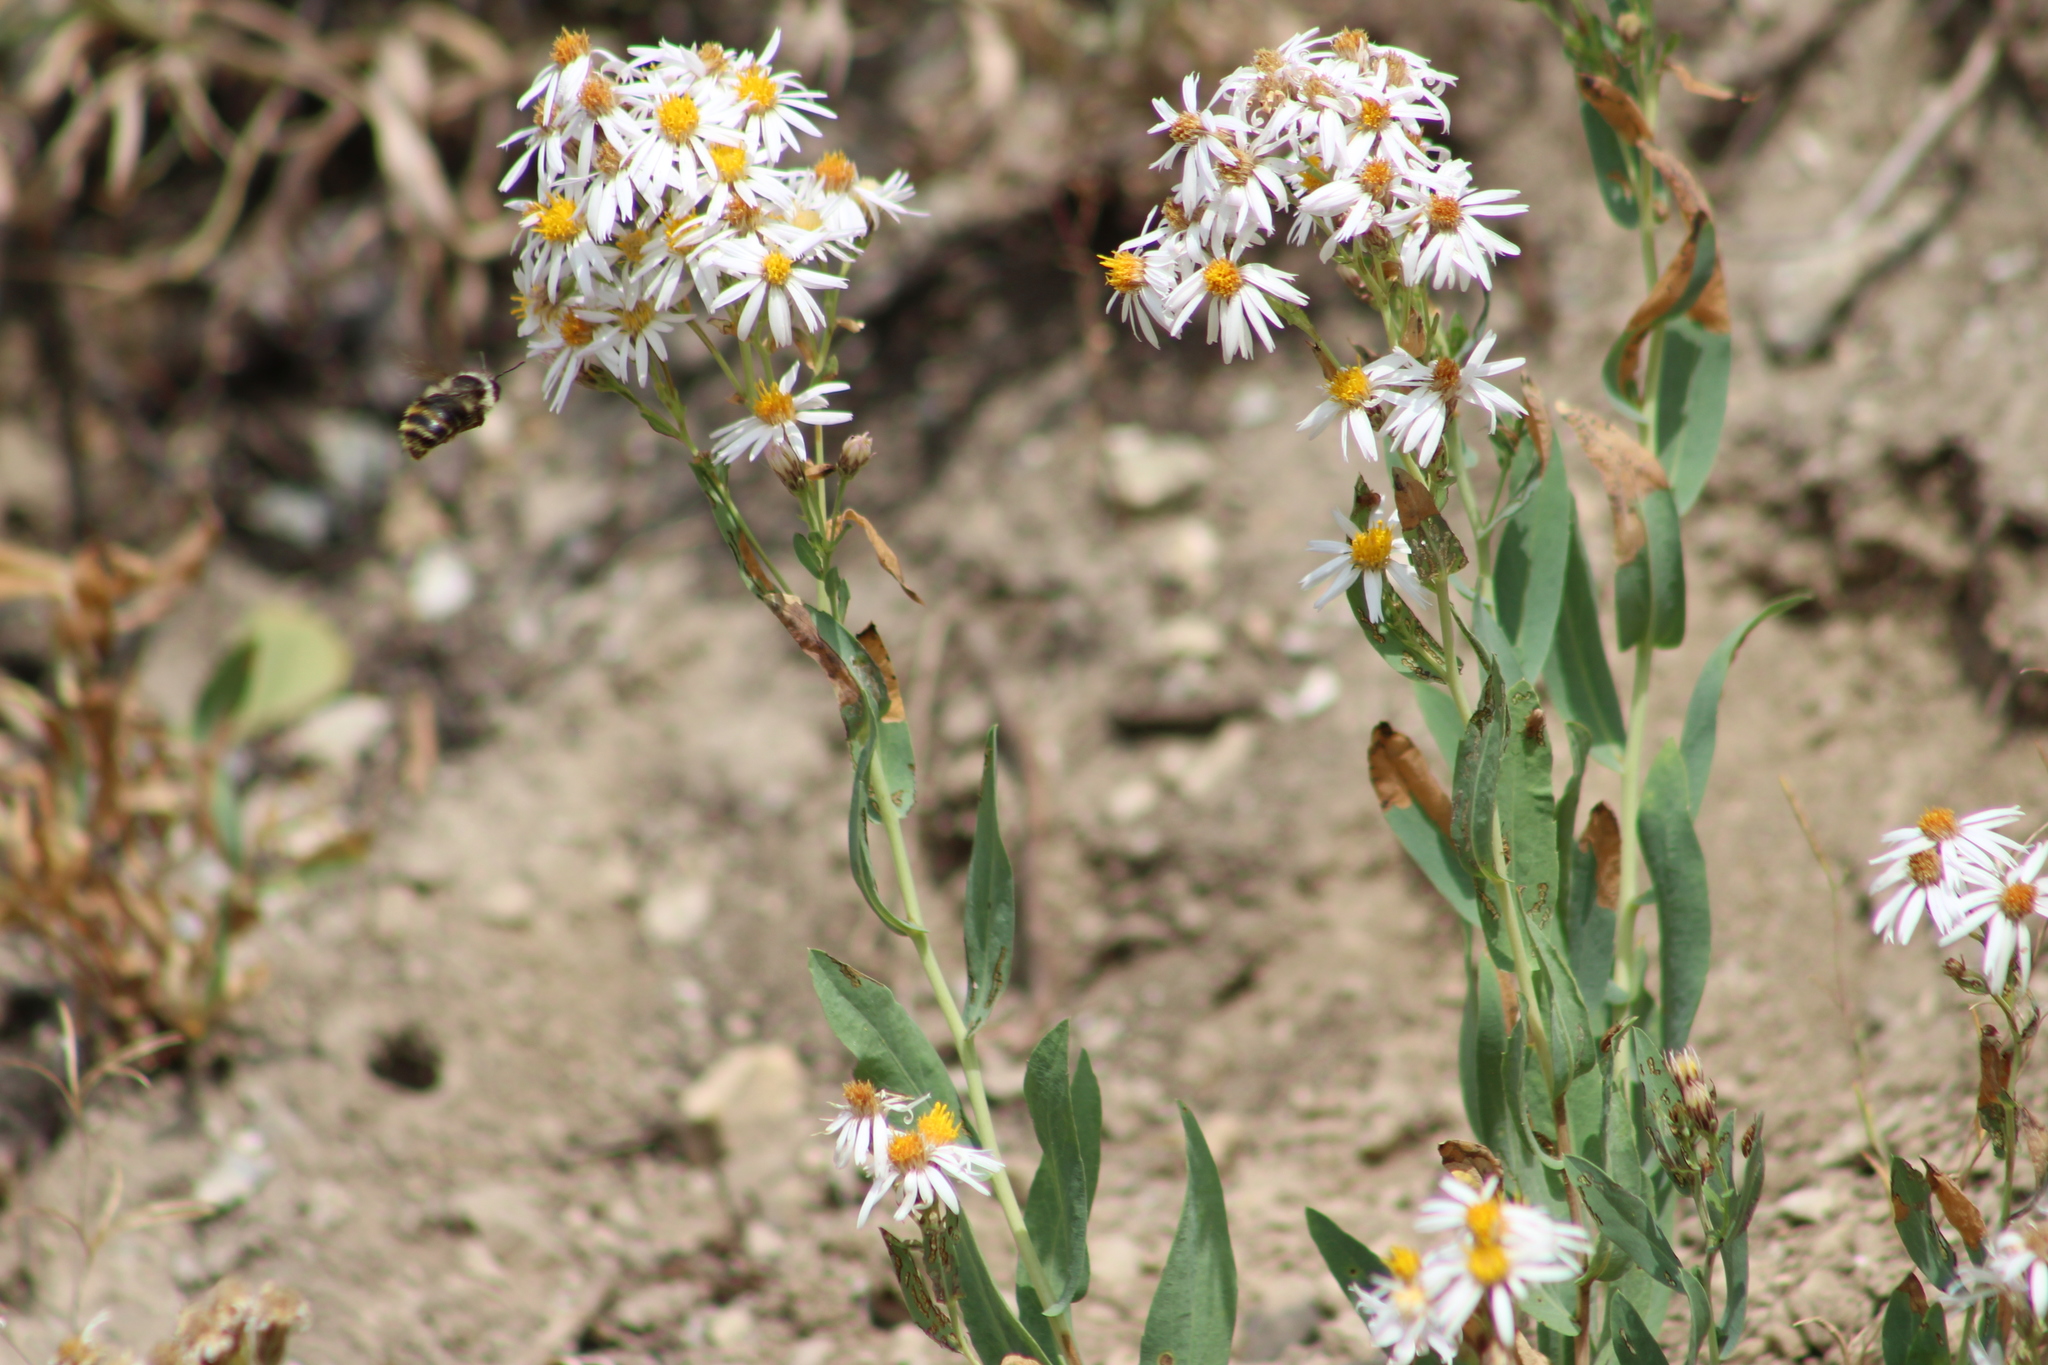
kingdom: Animalia
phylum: Arthropoda
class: Insecta
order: Hymenoptera
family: Apidae
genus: Bombus
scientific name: Bombus appositus
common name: White-shouldered bumble bee
